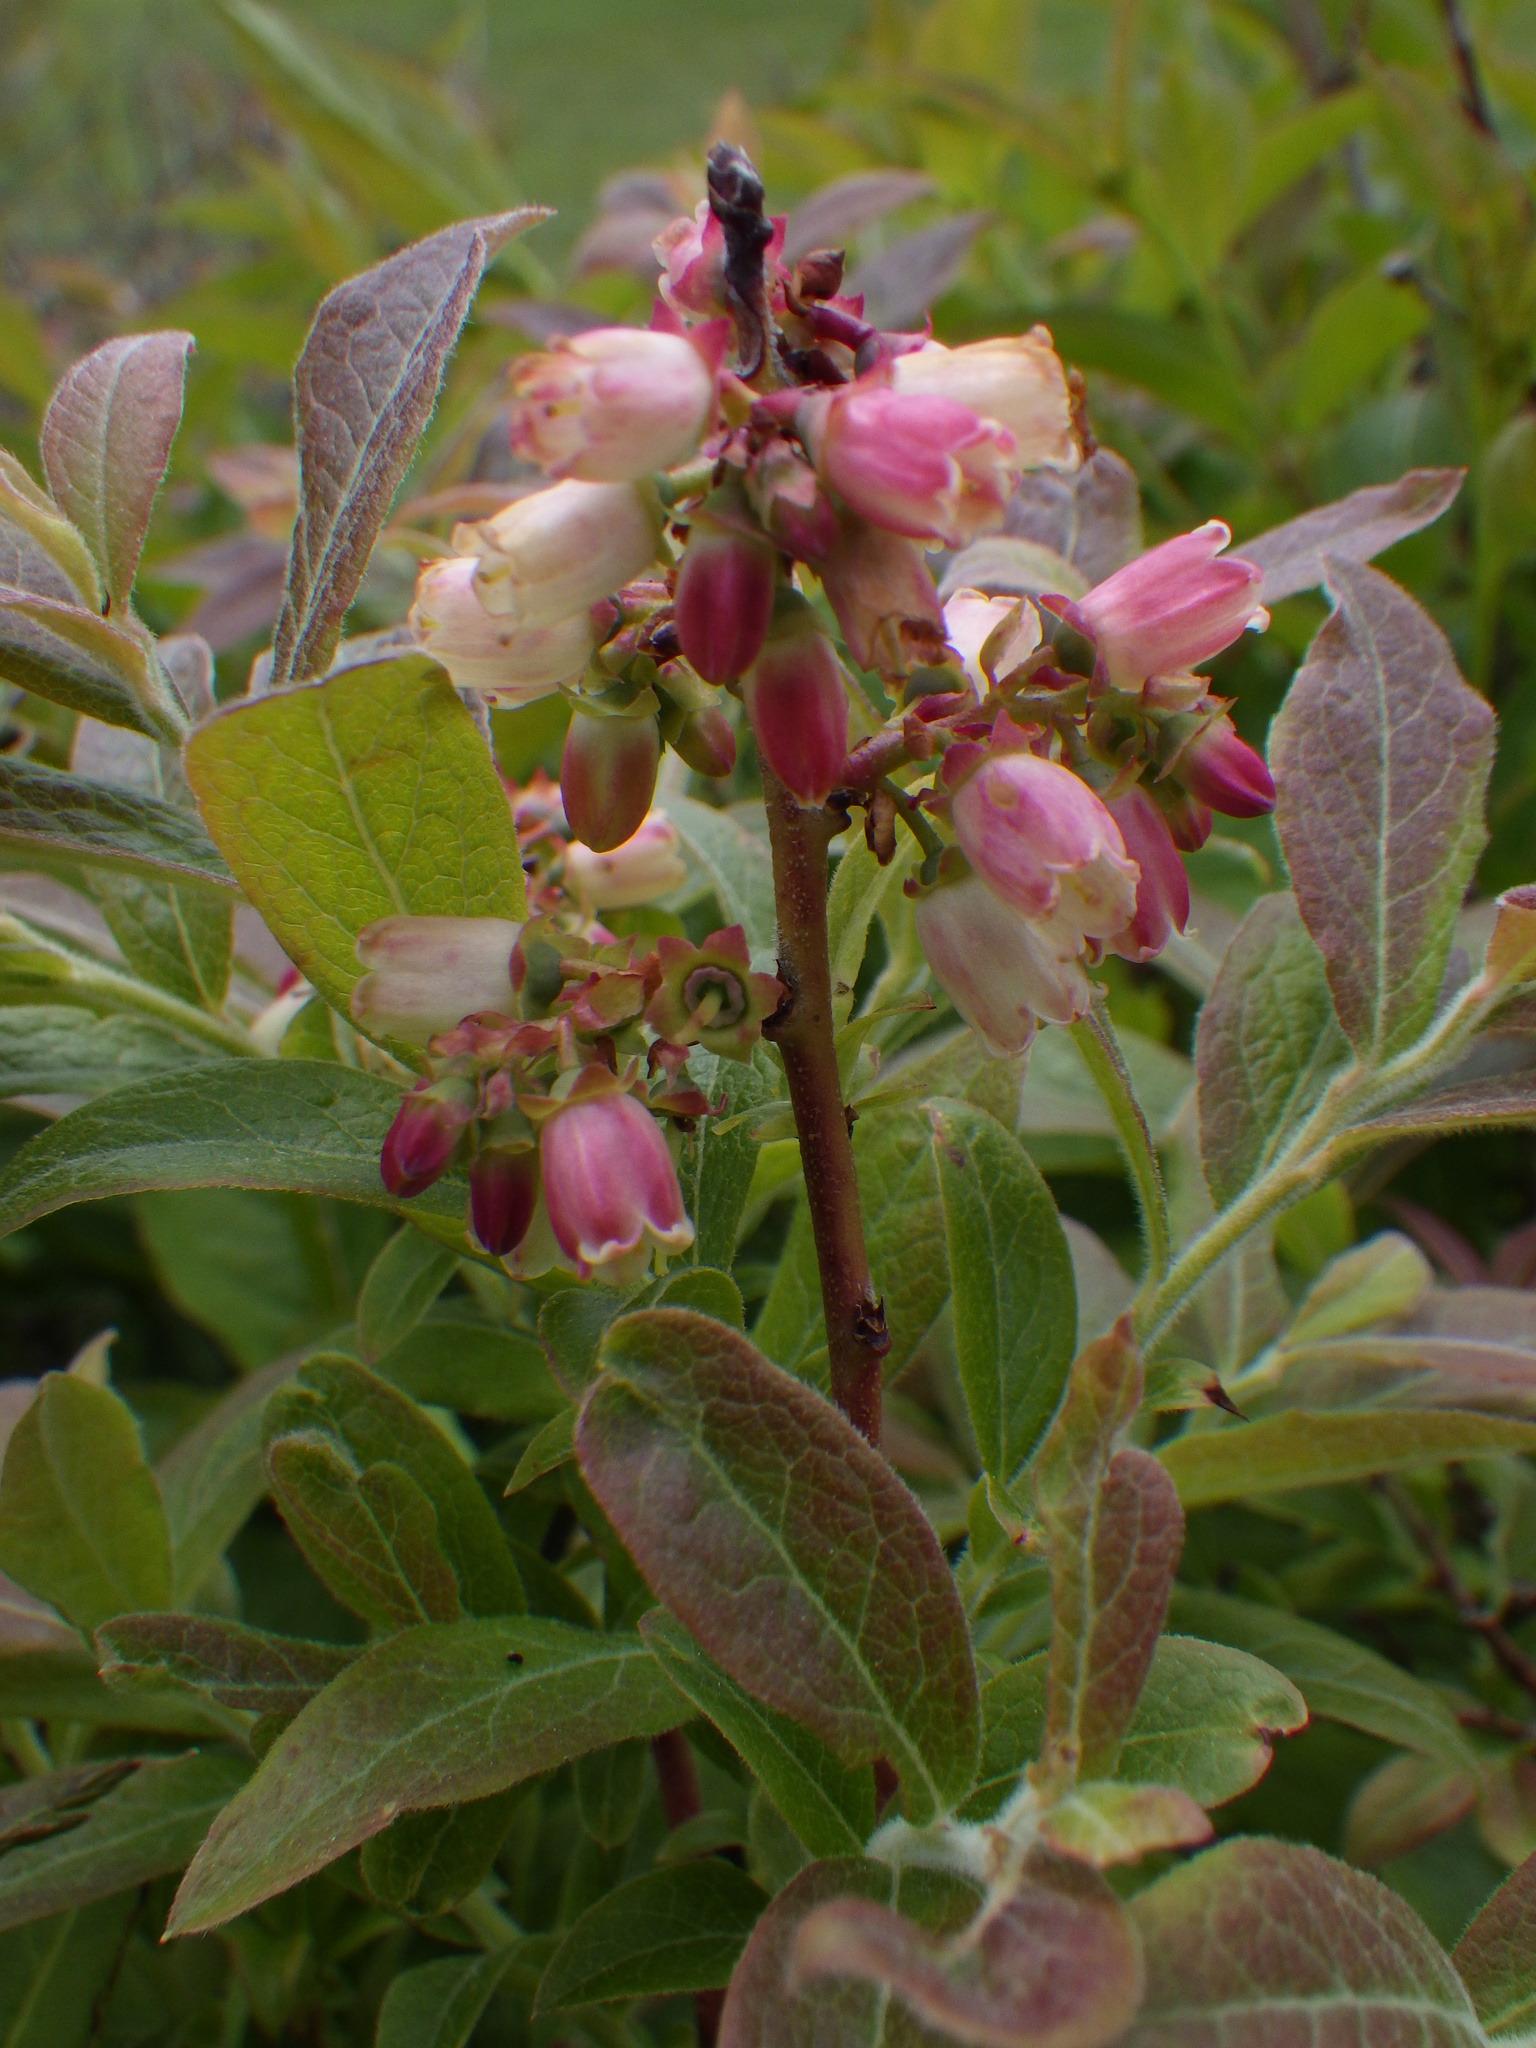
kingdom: Plantae
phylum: Tracheophyta
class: Magnoliopsida
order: Ericales
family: Ericaceae
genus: Vaccinium
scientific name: Vaccinium myrtilloides
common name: Canada blueberry
